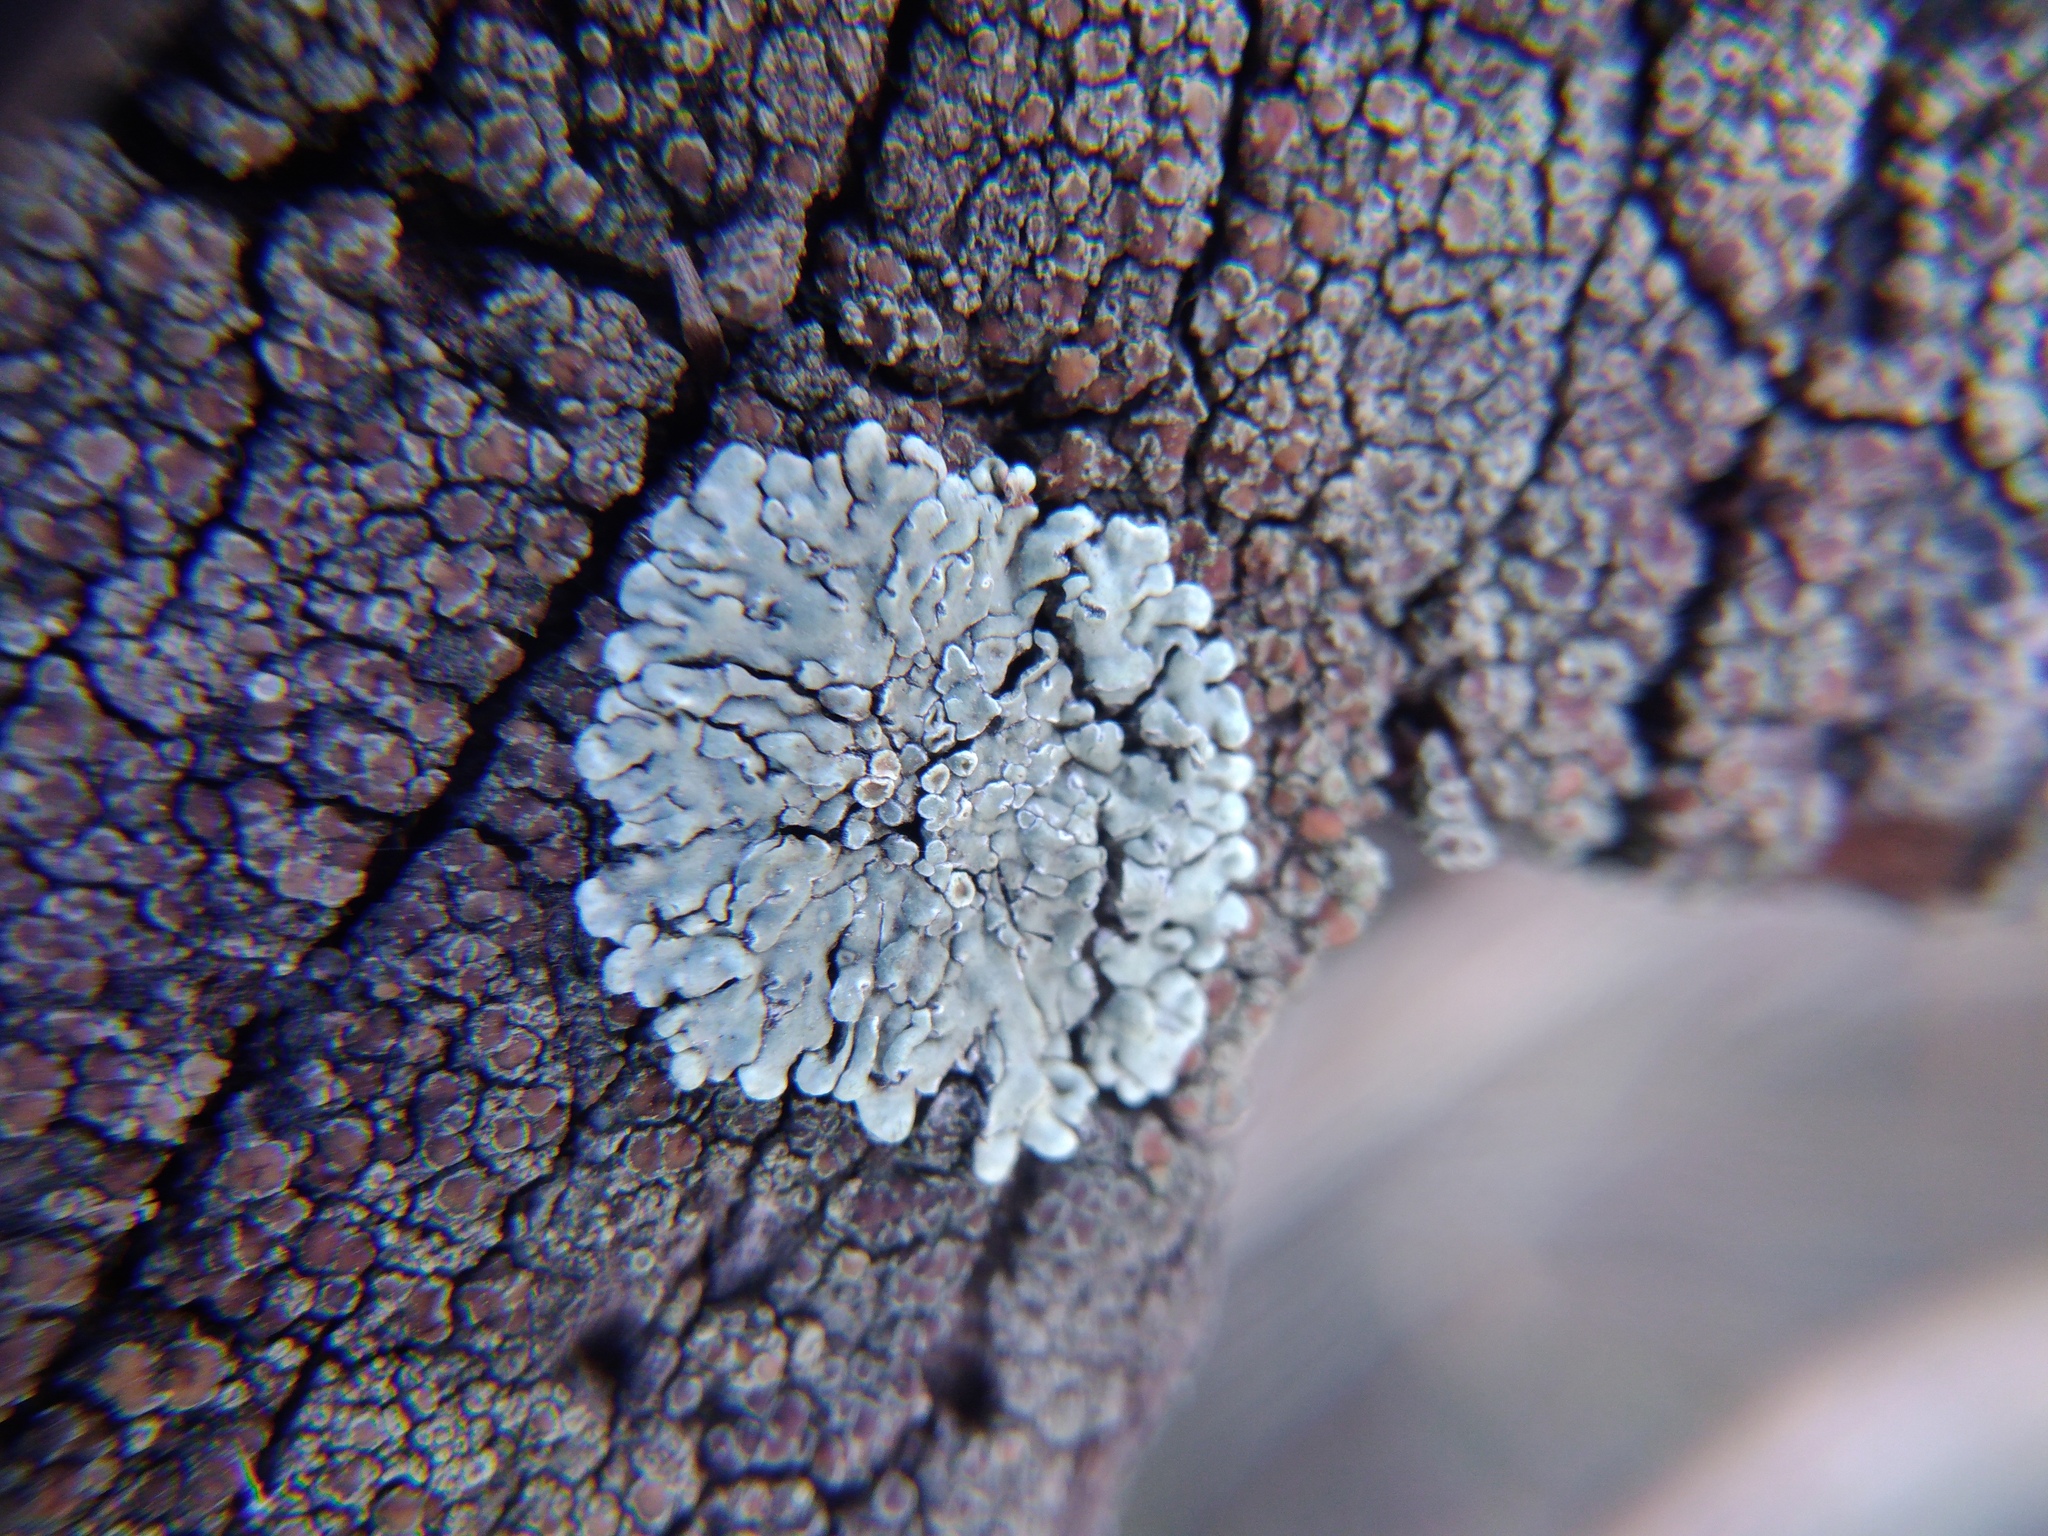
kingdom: Fungi
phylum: Ascomycota
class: Lecanoromycetes
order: Lecanorales
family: Lecanoraceae
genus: Protoparmeliopsis
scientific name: Protoparmeliopsis muralis
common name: Stonewall rim lichen
